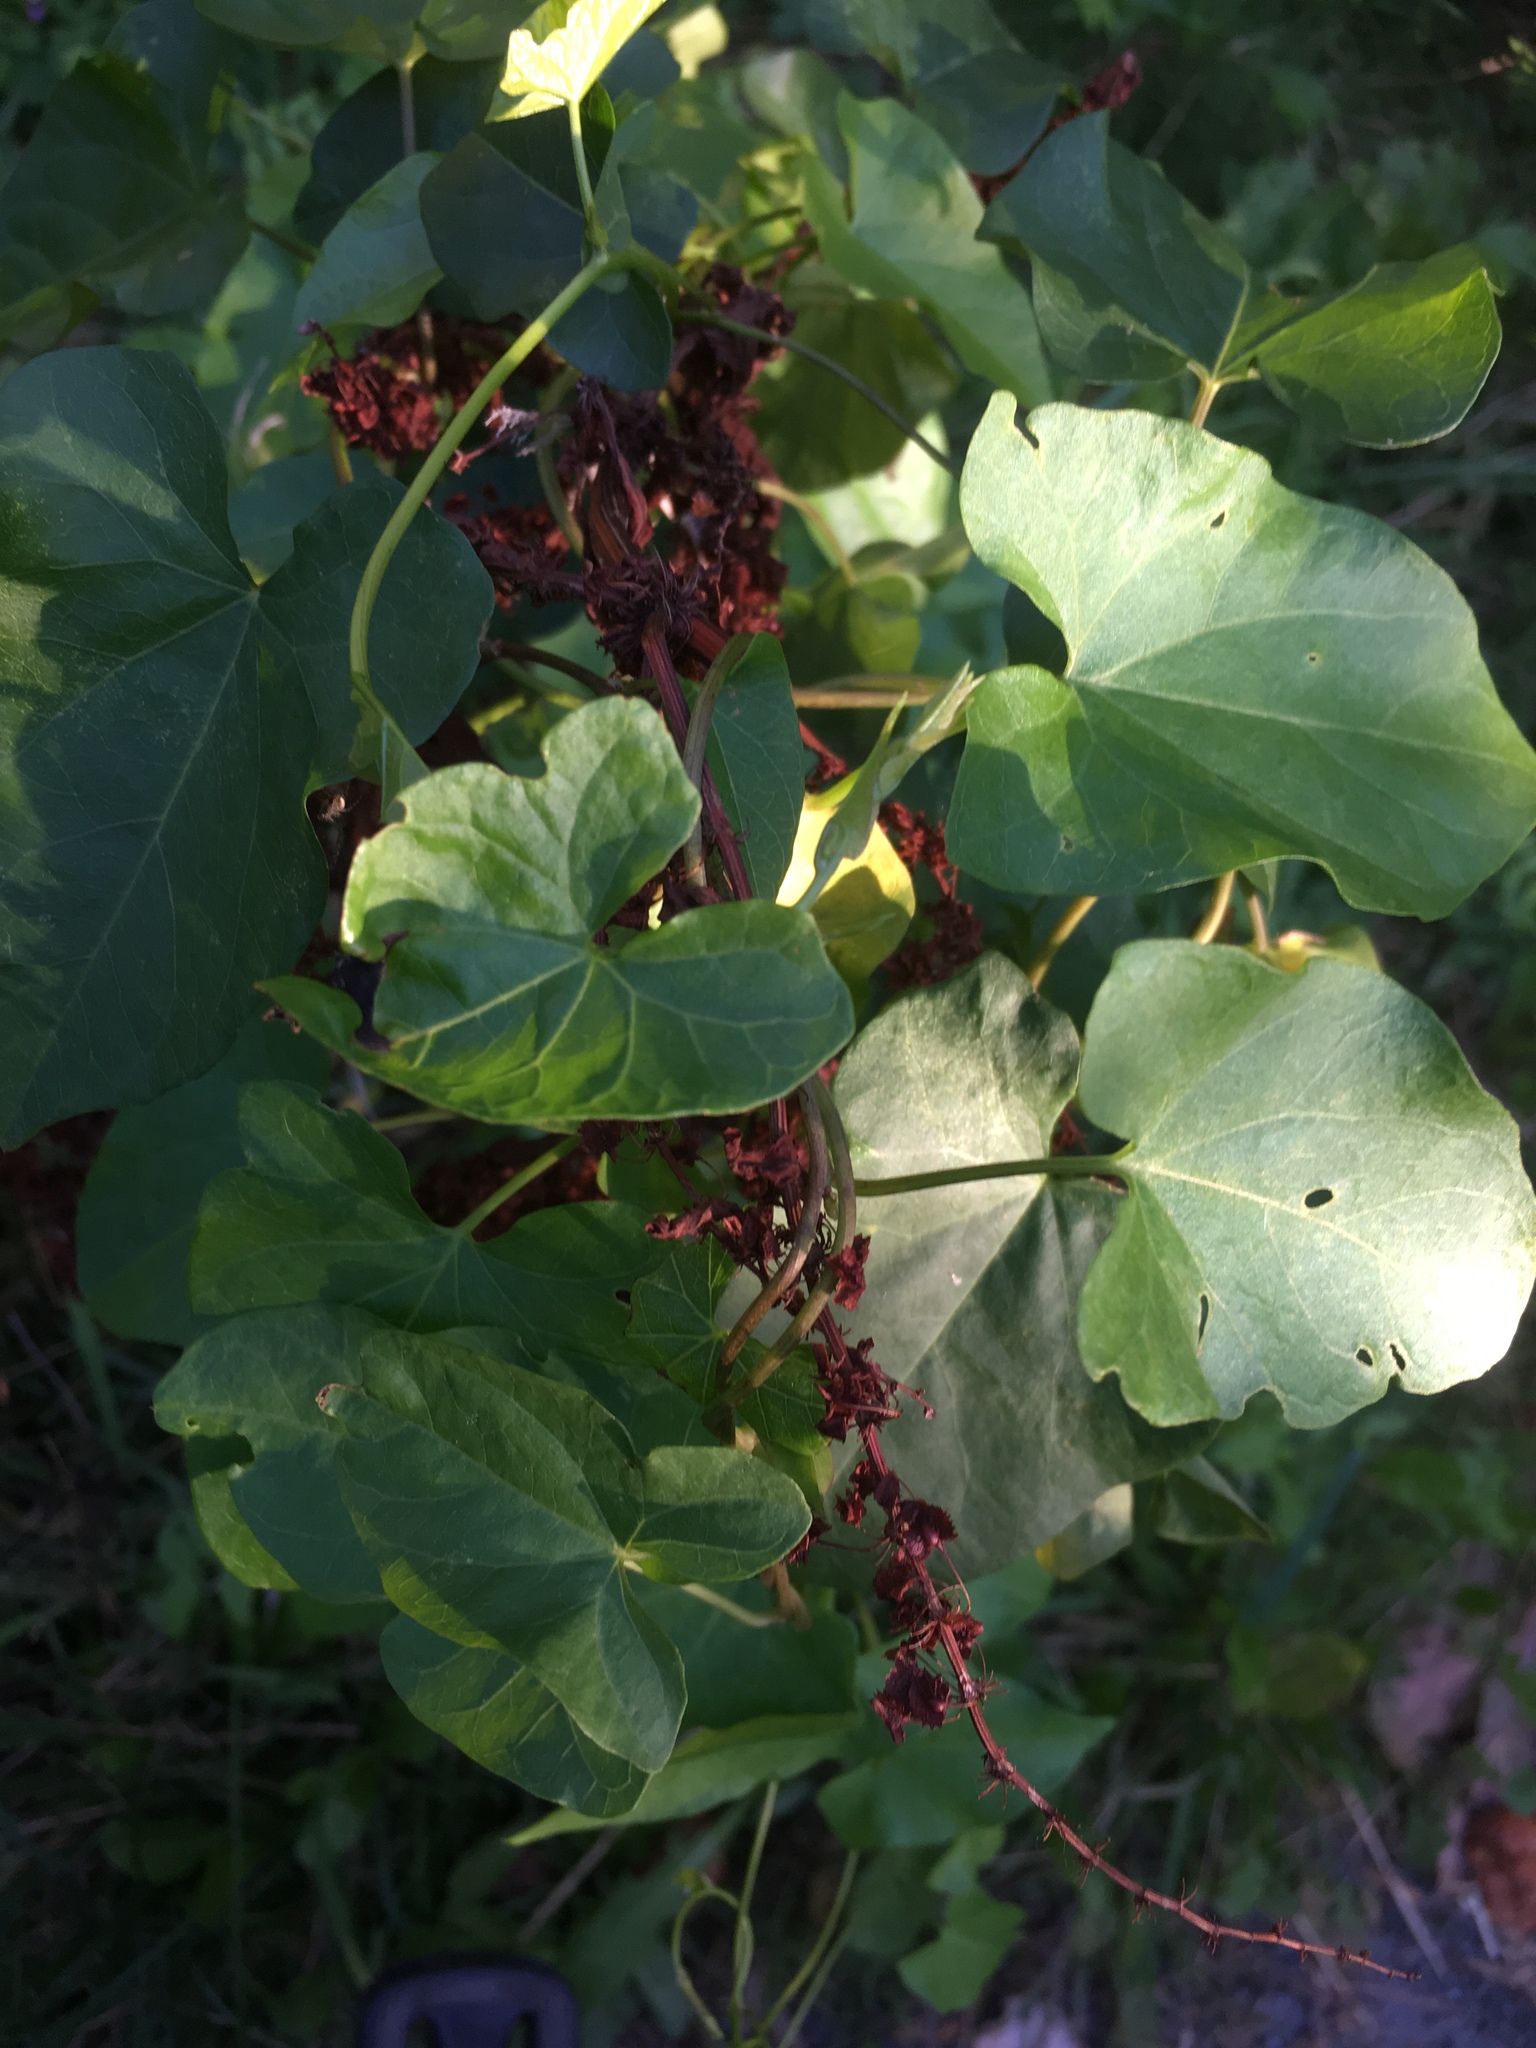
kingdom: Plantae
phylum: Tracheophyta
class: Magnoliopsida
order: Caryophyllales
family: Polygonaceae
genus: Oxyria
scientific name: Oxyria digyna
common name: Alpine mountain-sorrel
